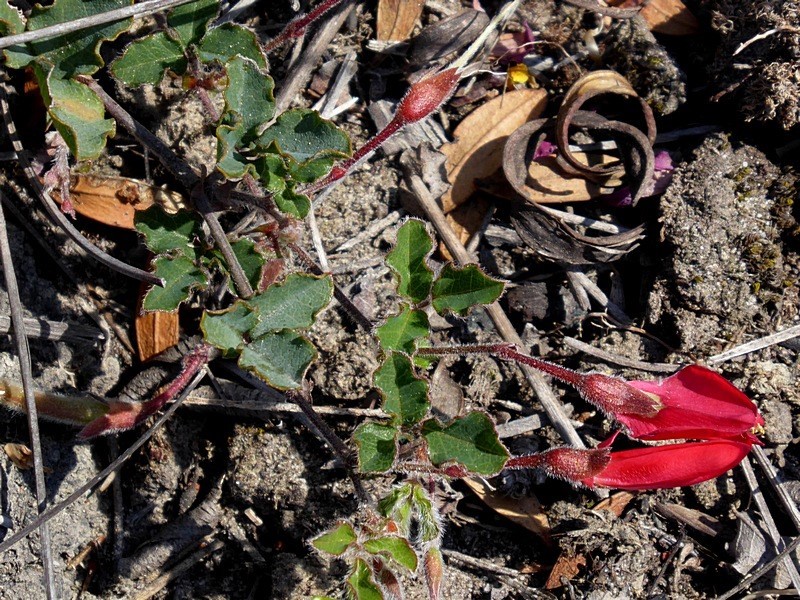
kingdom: Plantae
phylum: Tracheophyta
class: Magnoliopsida
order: Fabales
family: Fabaceae
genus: Kennedia
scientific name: Kennedia prostrata
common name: Running-postman
